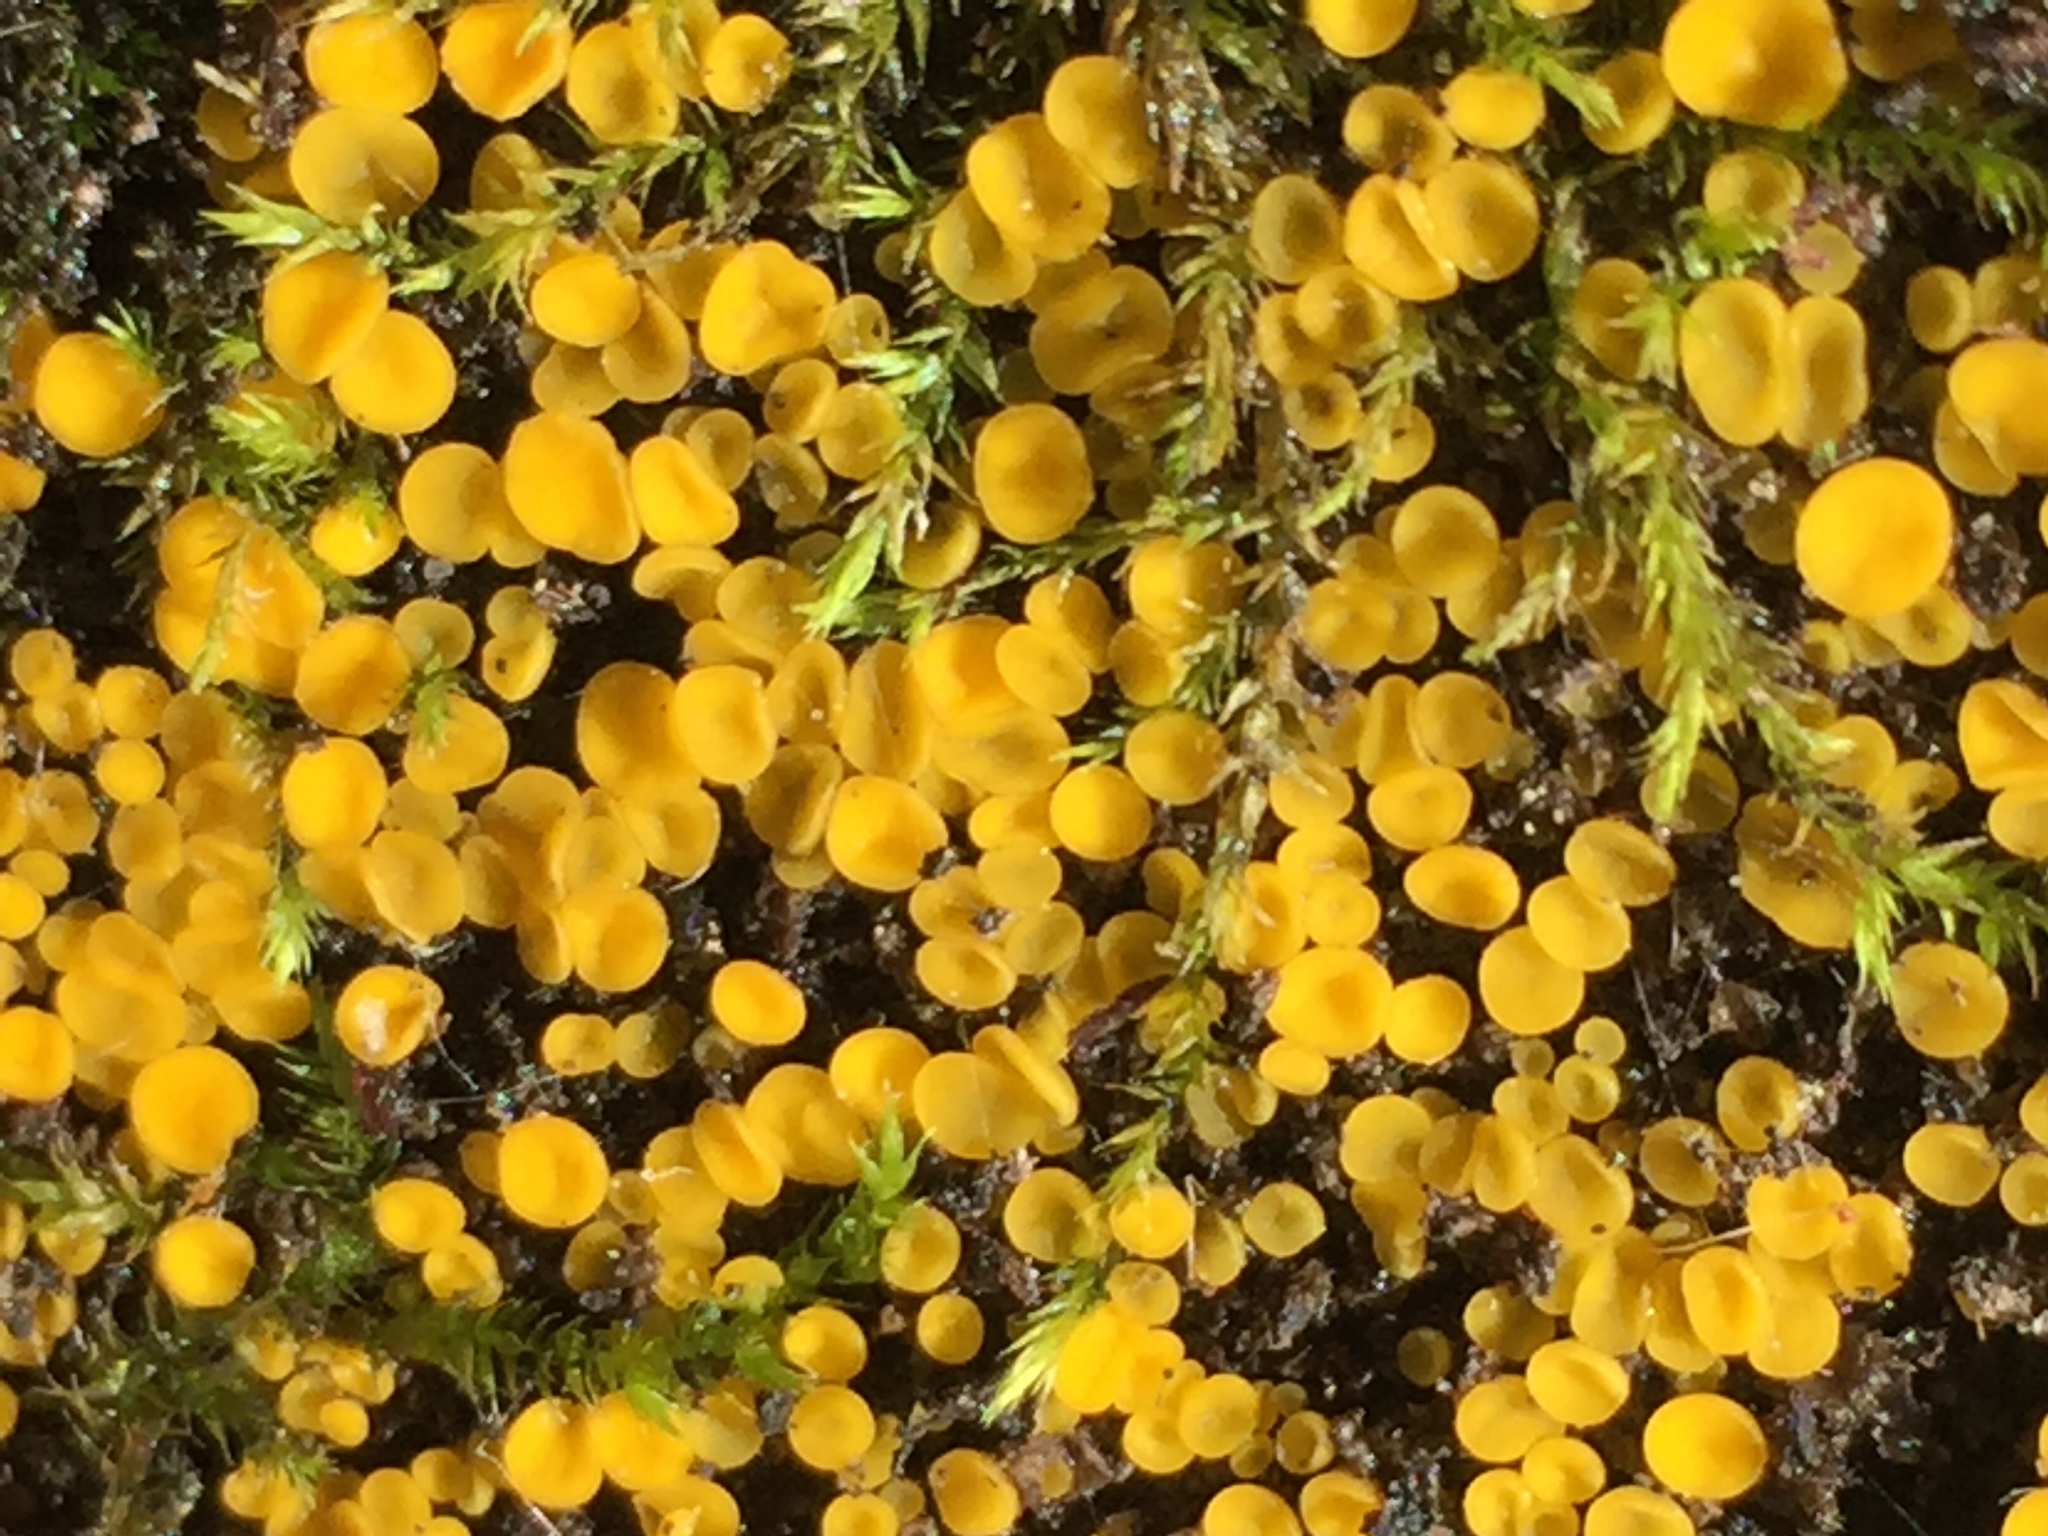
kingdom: Fungi
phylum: Ascomycota
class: Leotiomycetes
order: Helotiales
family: Pezizellaceae
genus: Calycina
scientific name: Calycina citrina
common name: Yellow fairy cups
